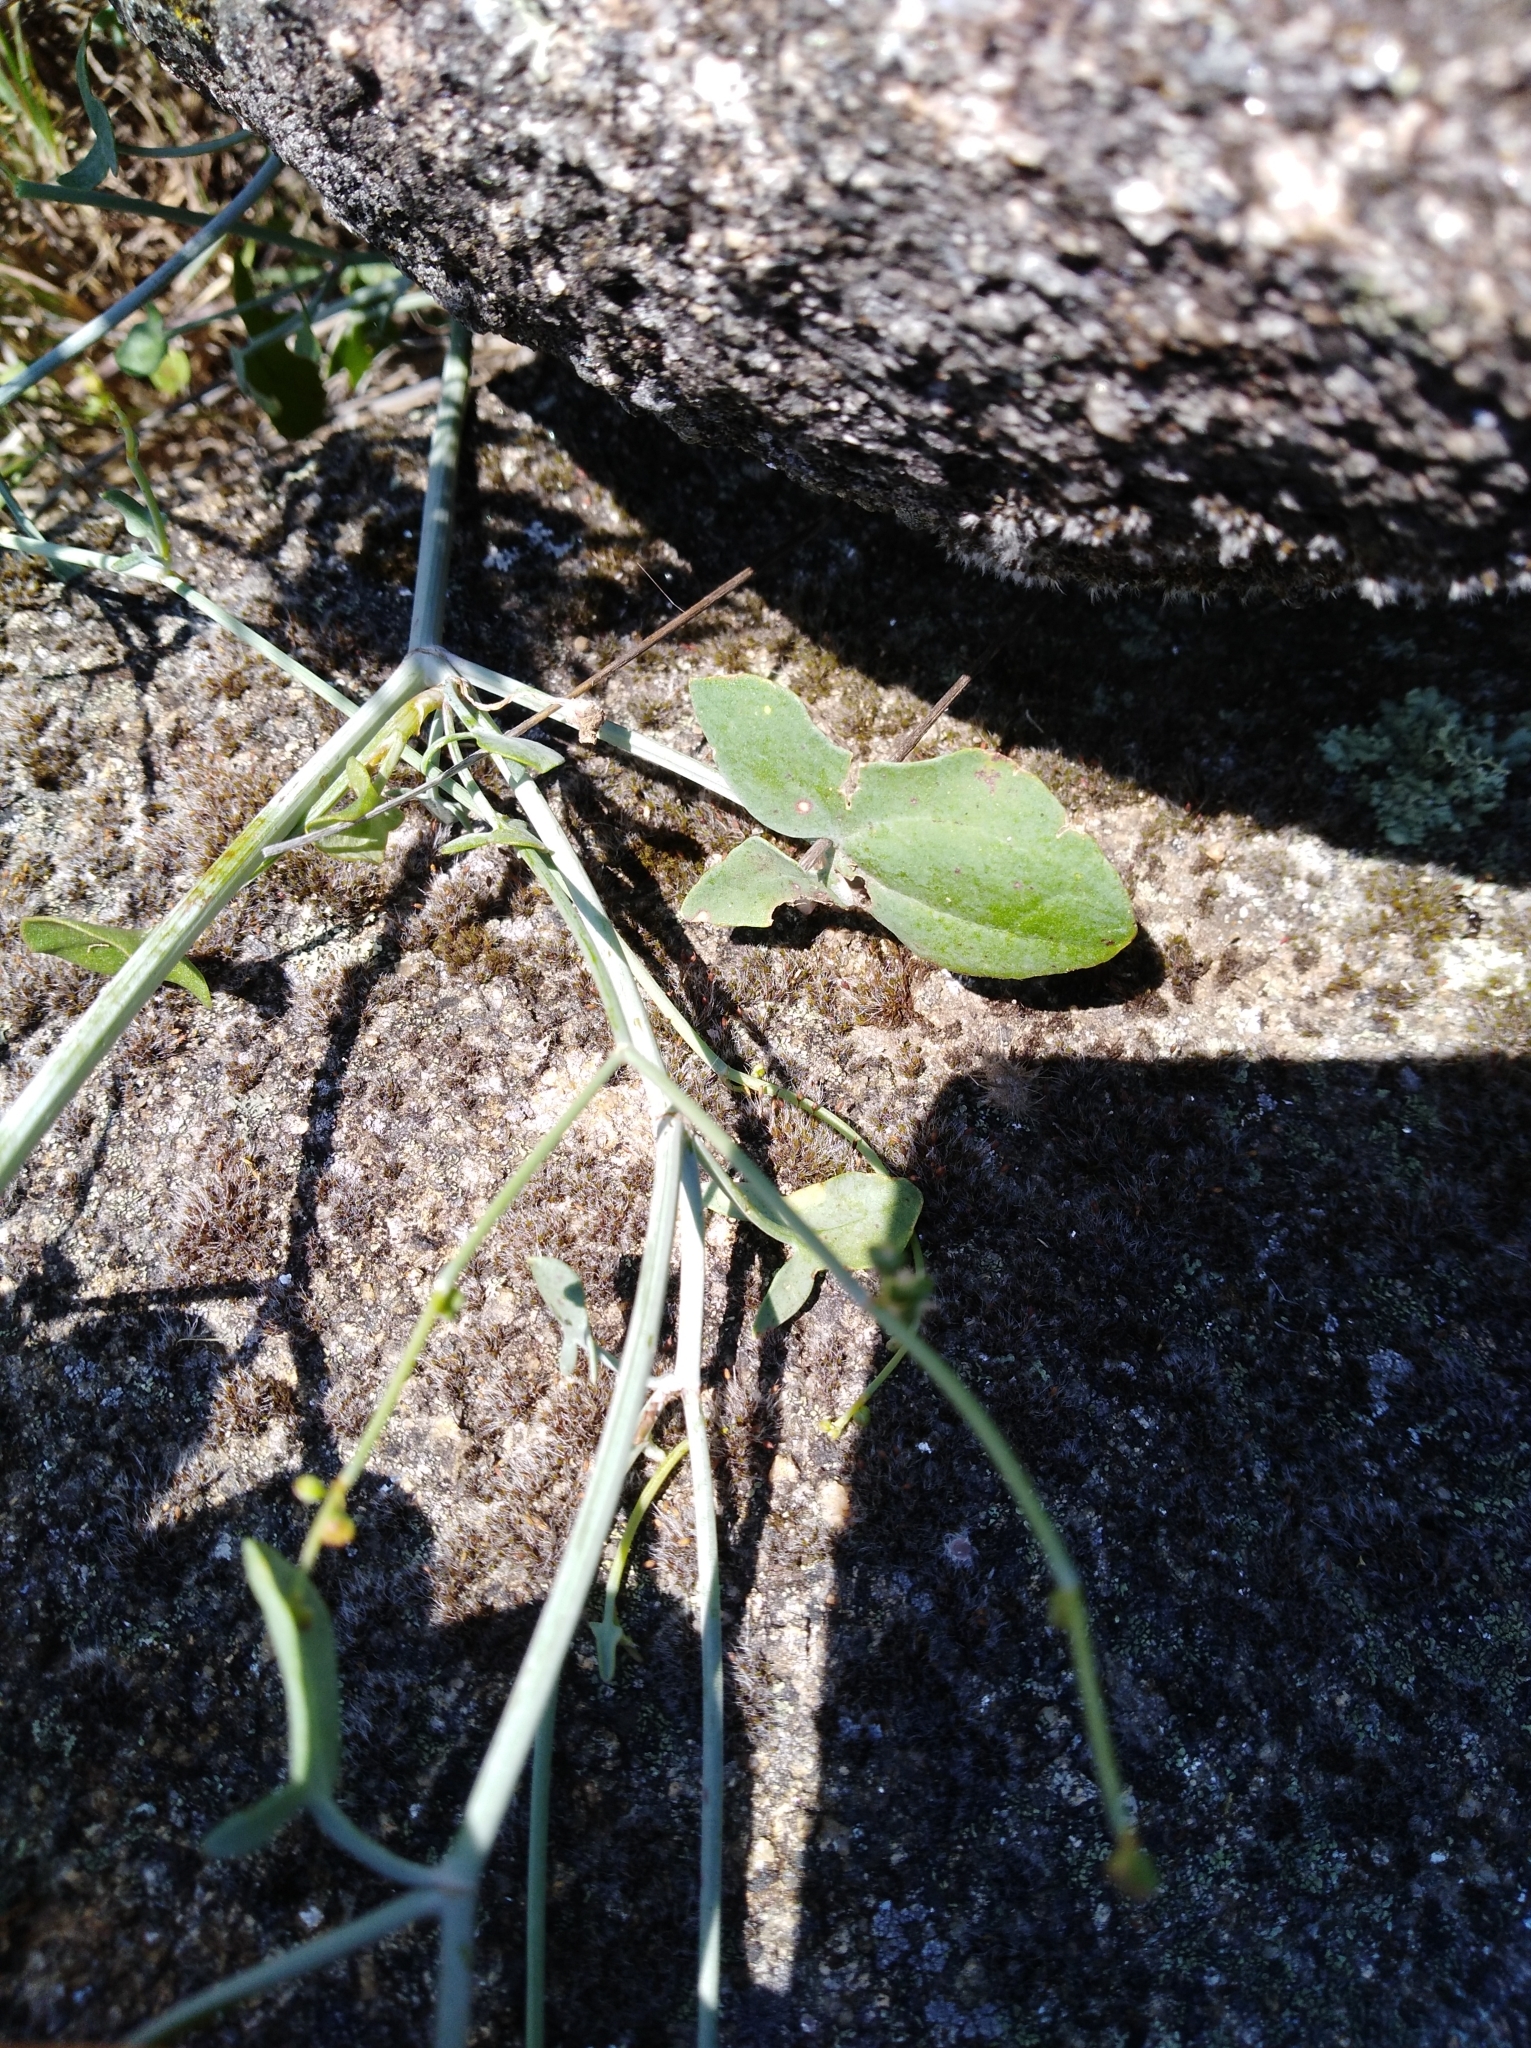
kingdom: Plantae
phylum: Tracheophyta
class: Magnoliopsida
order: Caryophyllales
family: Polygonaceae
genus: Rumex
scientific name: Rumex induratus
